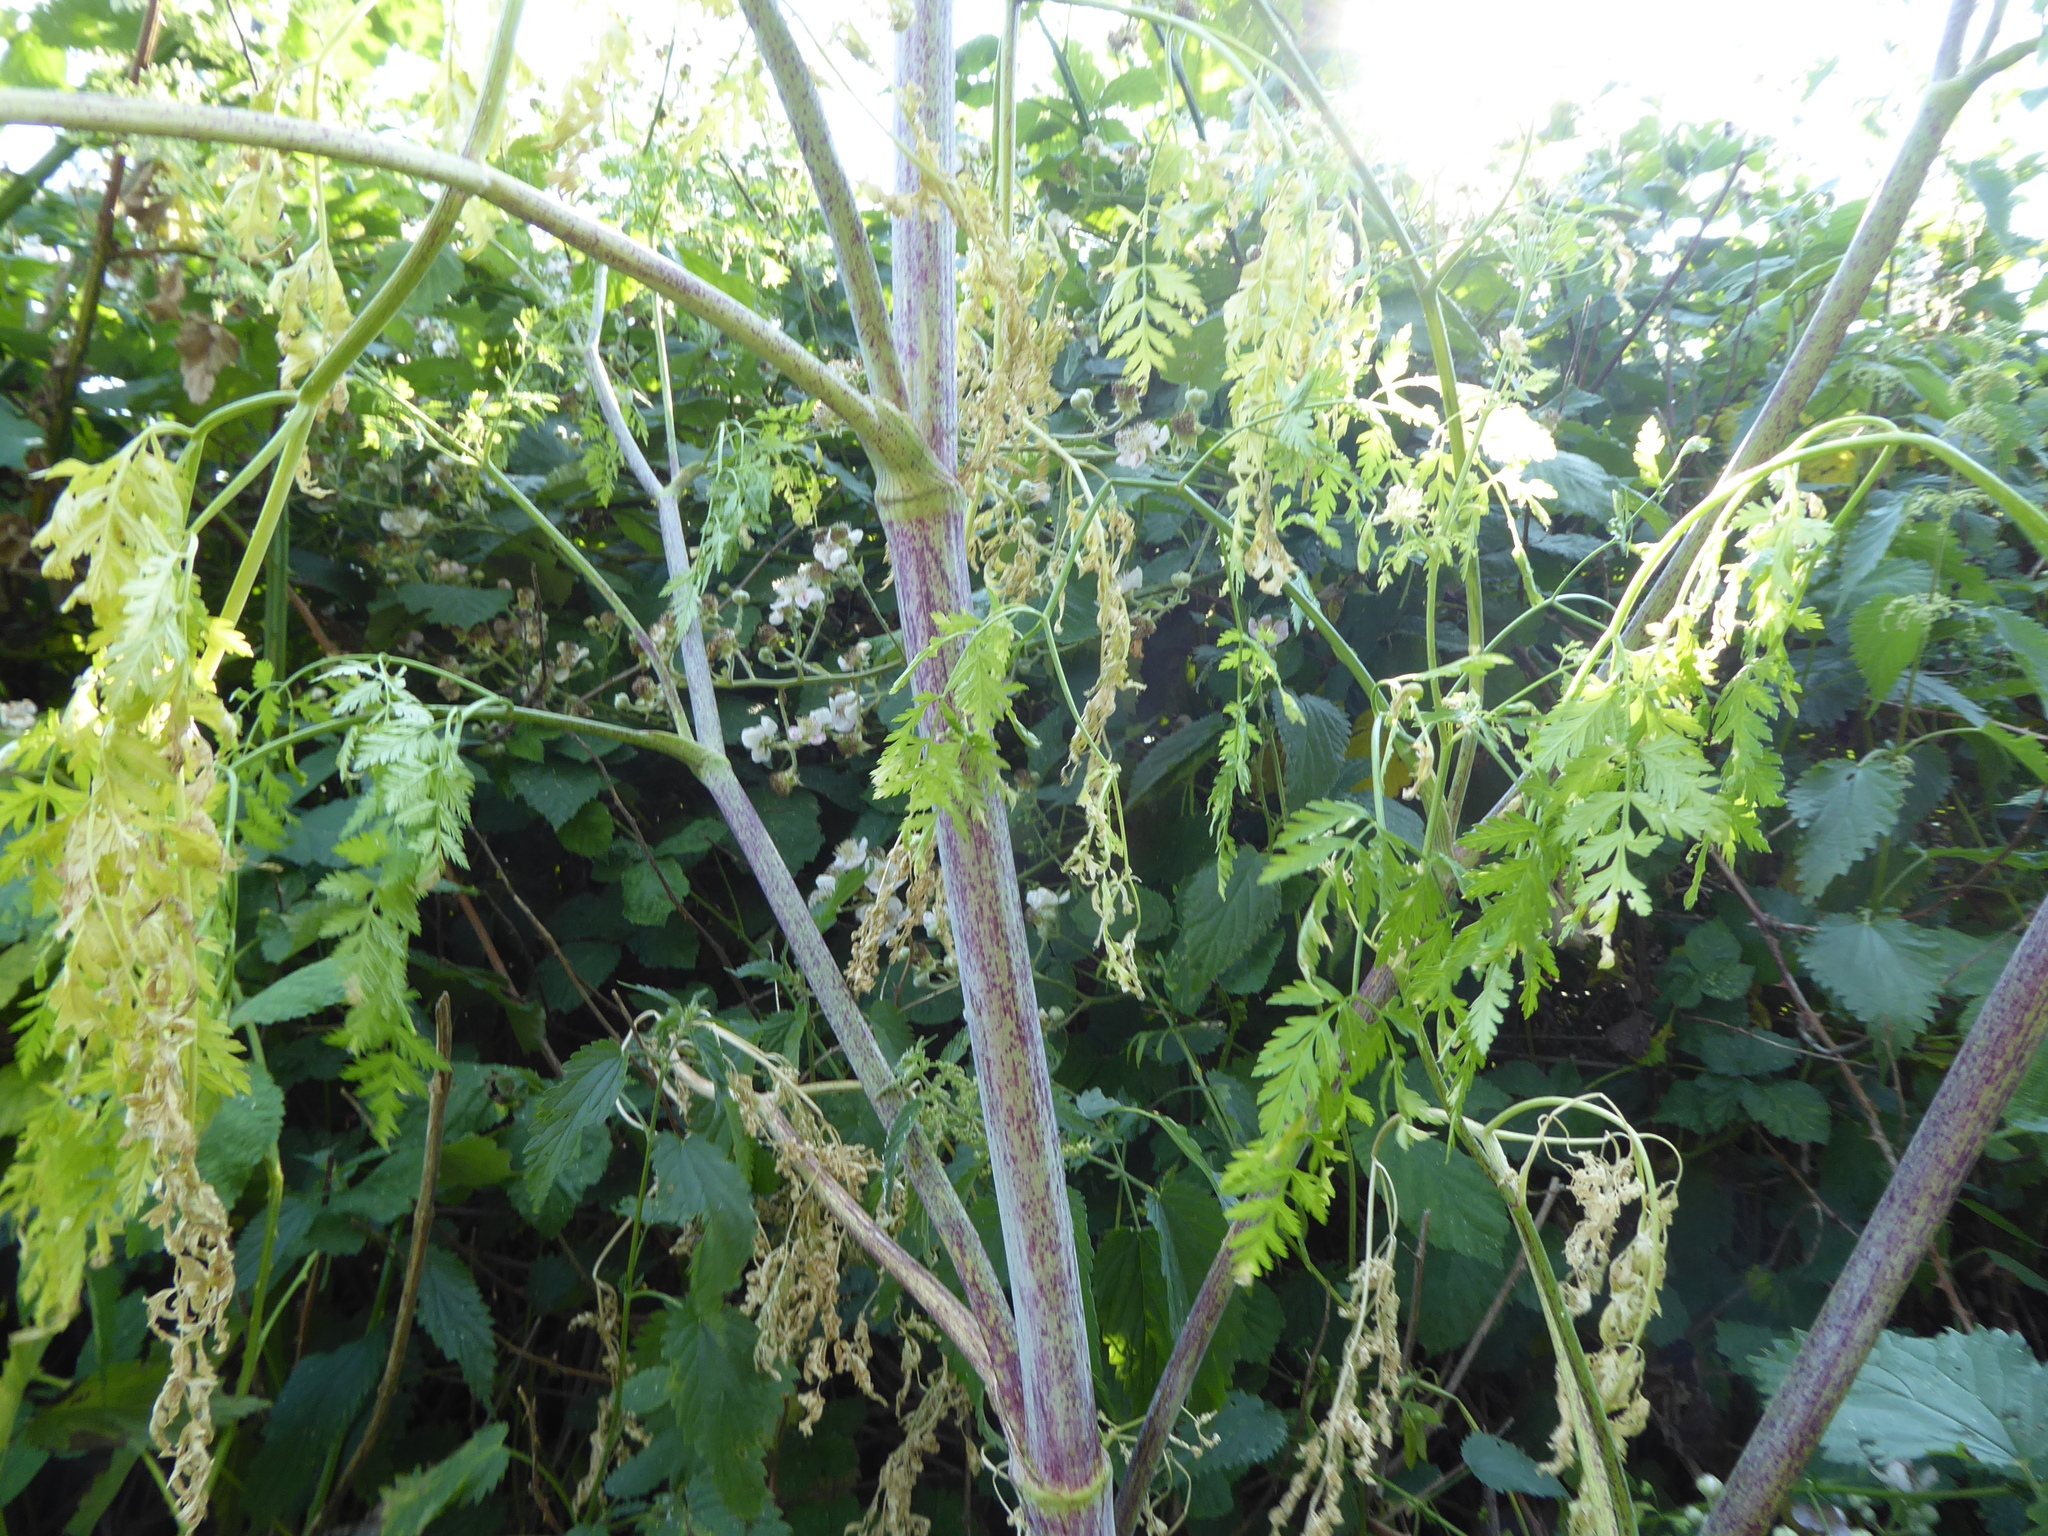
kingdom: Plantae
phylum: Tracheophyta
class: Magnoliopsida
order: Apiales
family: Apiaceae
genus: Conium
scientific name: Conium maculatum
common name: Hemlock
